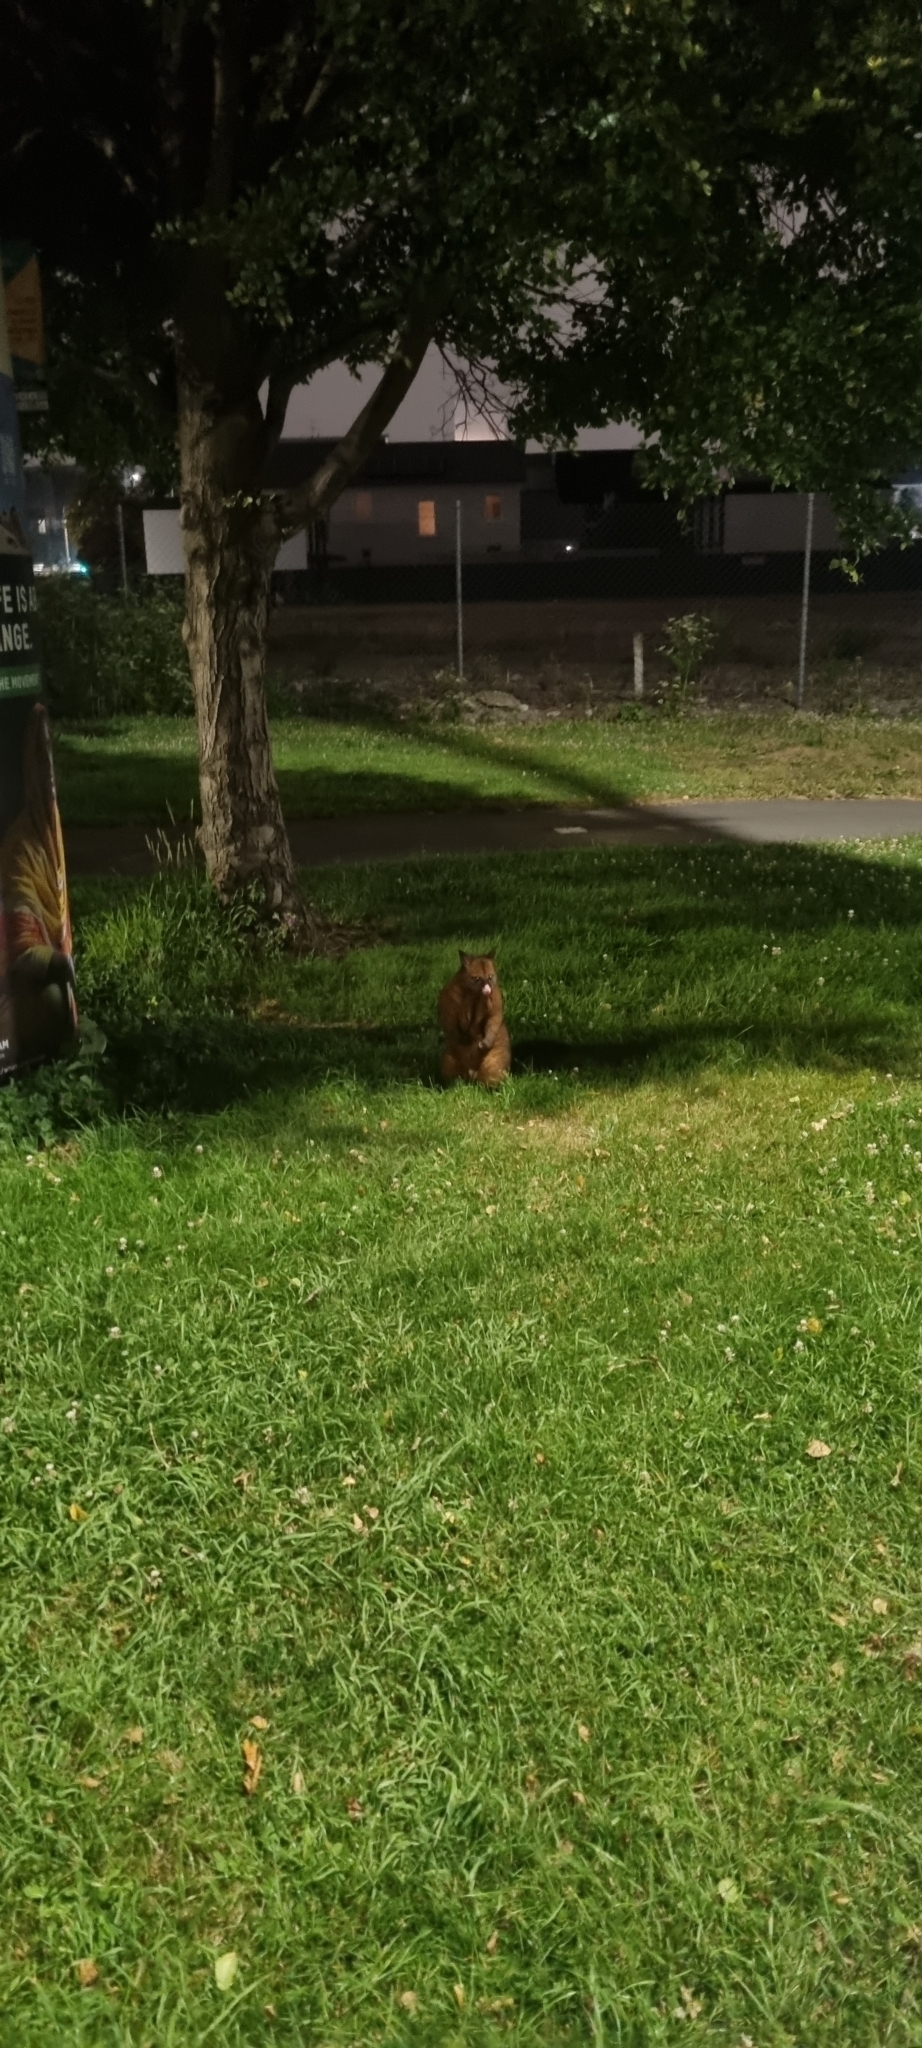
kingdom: Animalia
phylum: Chordata
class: Mammalia
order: Diprotodontia
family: Phalangeridae
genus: Trichosurus
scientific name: Trichosurus vulpecula
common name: Common brushtail
